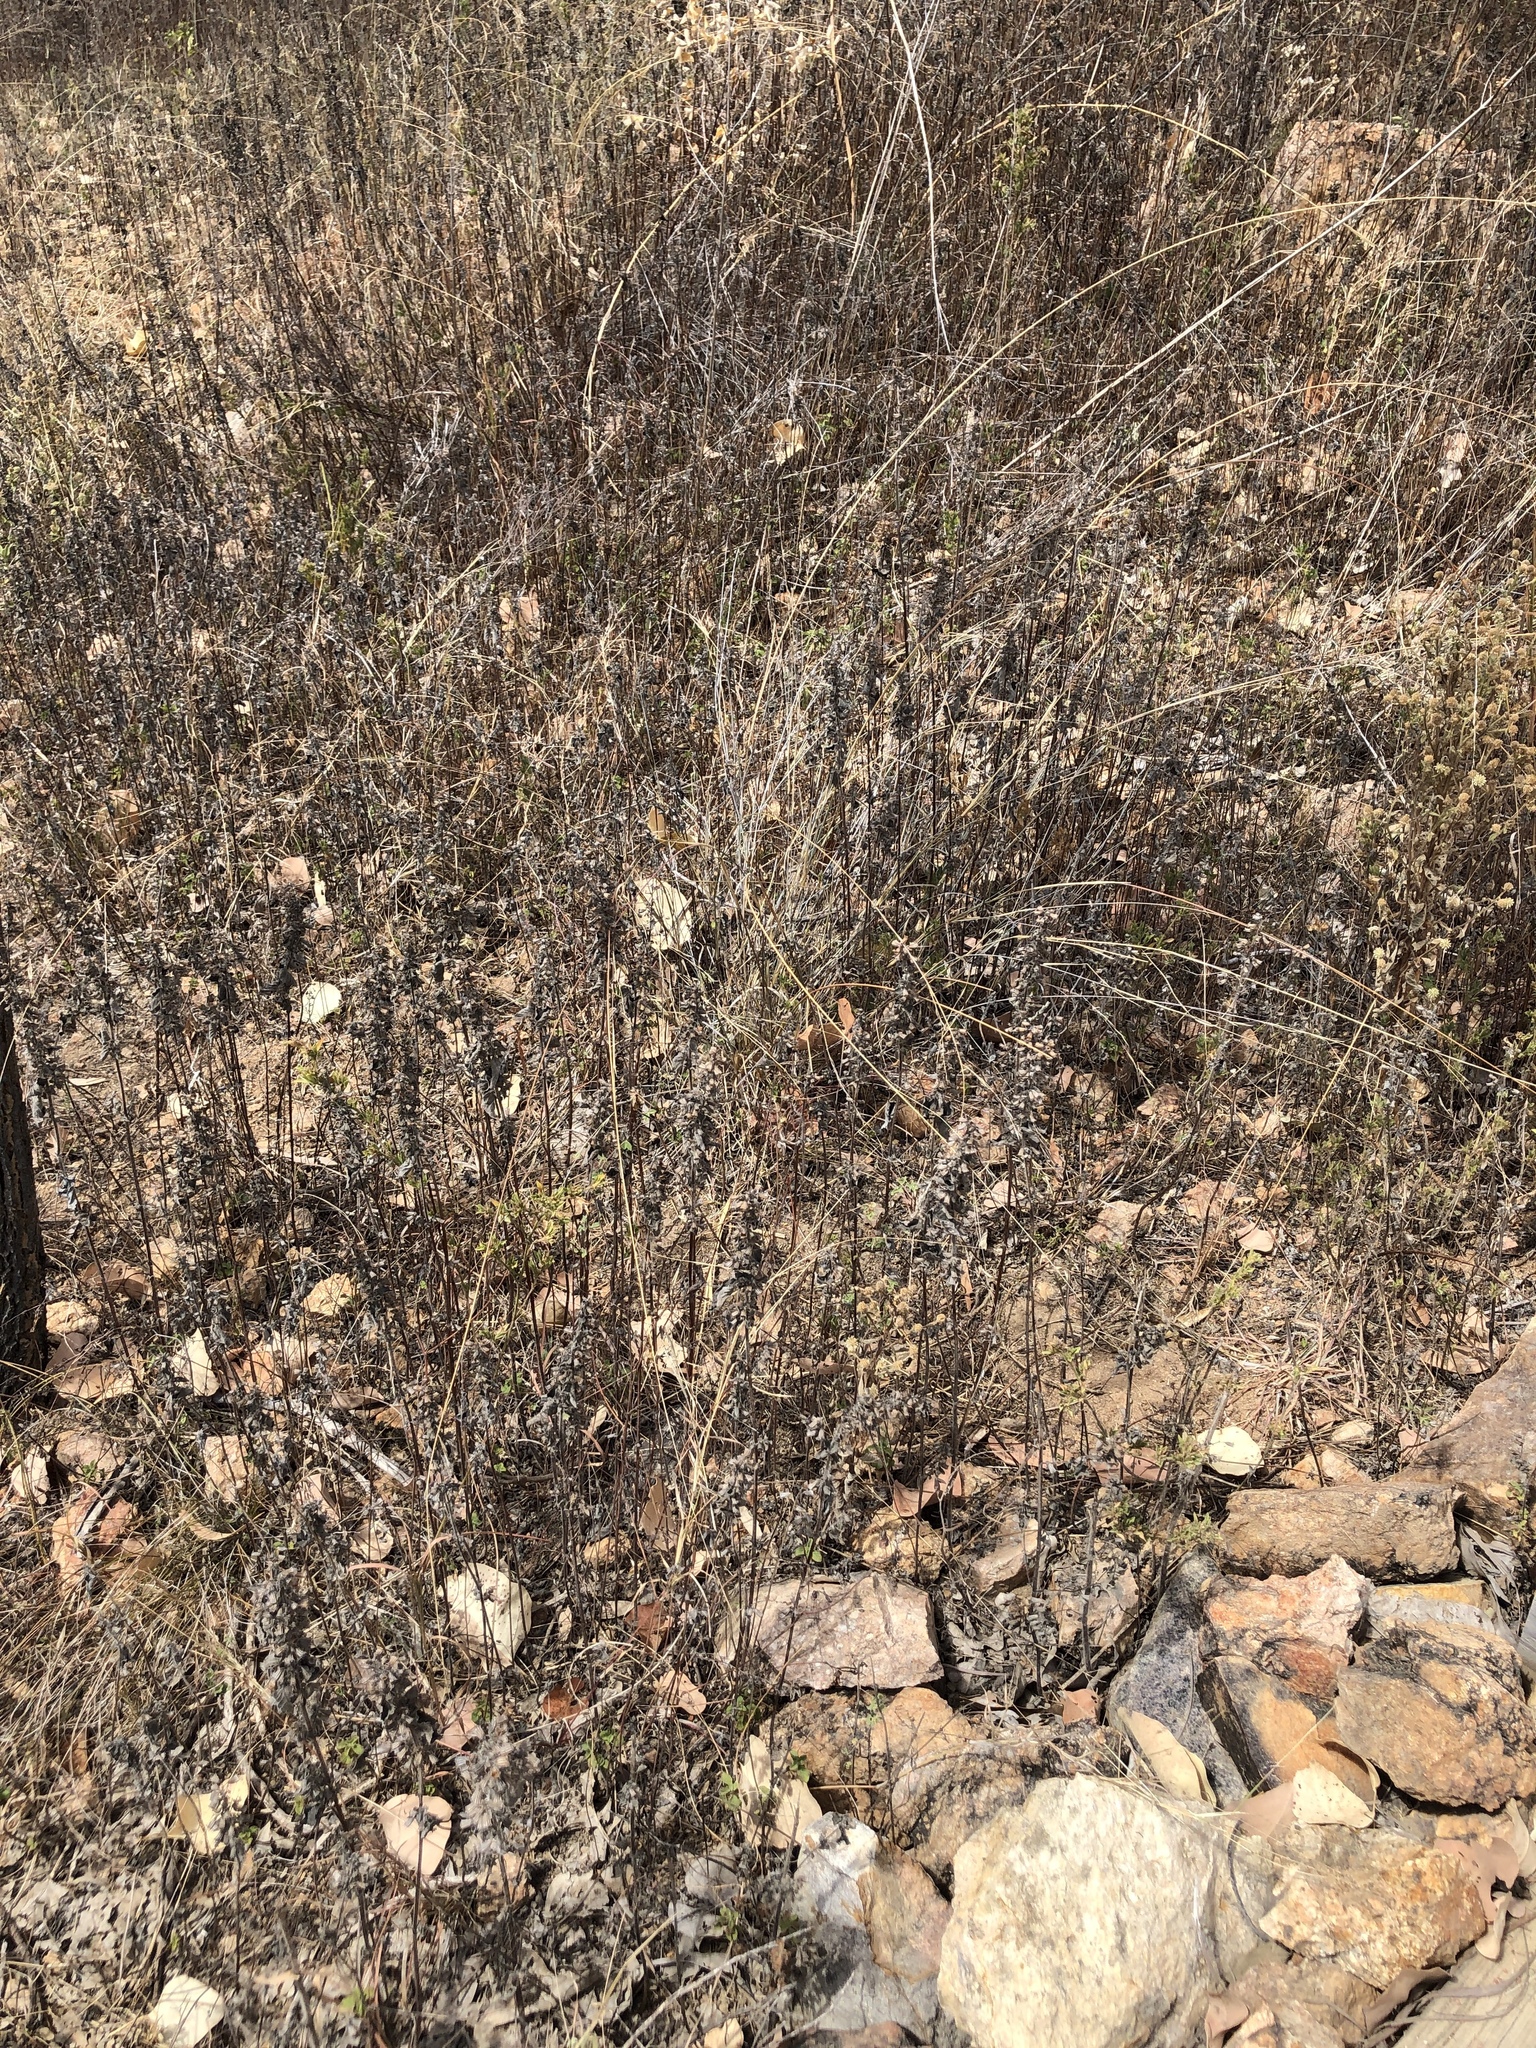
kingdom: Plantae
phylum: Tracheophyta
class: Magnoliopsida
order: Lamiales
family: Lamiaceae
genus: Mesosphaerum
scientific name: Mesosphaerum suaveolens
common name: Pignut
